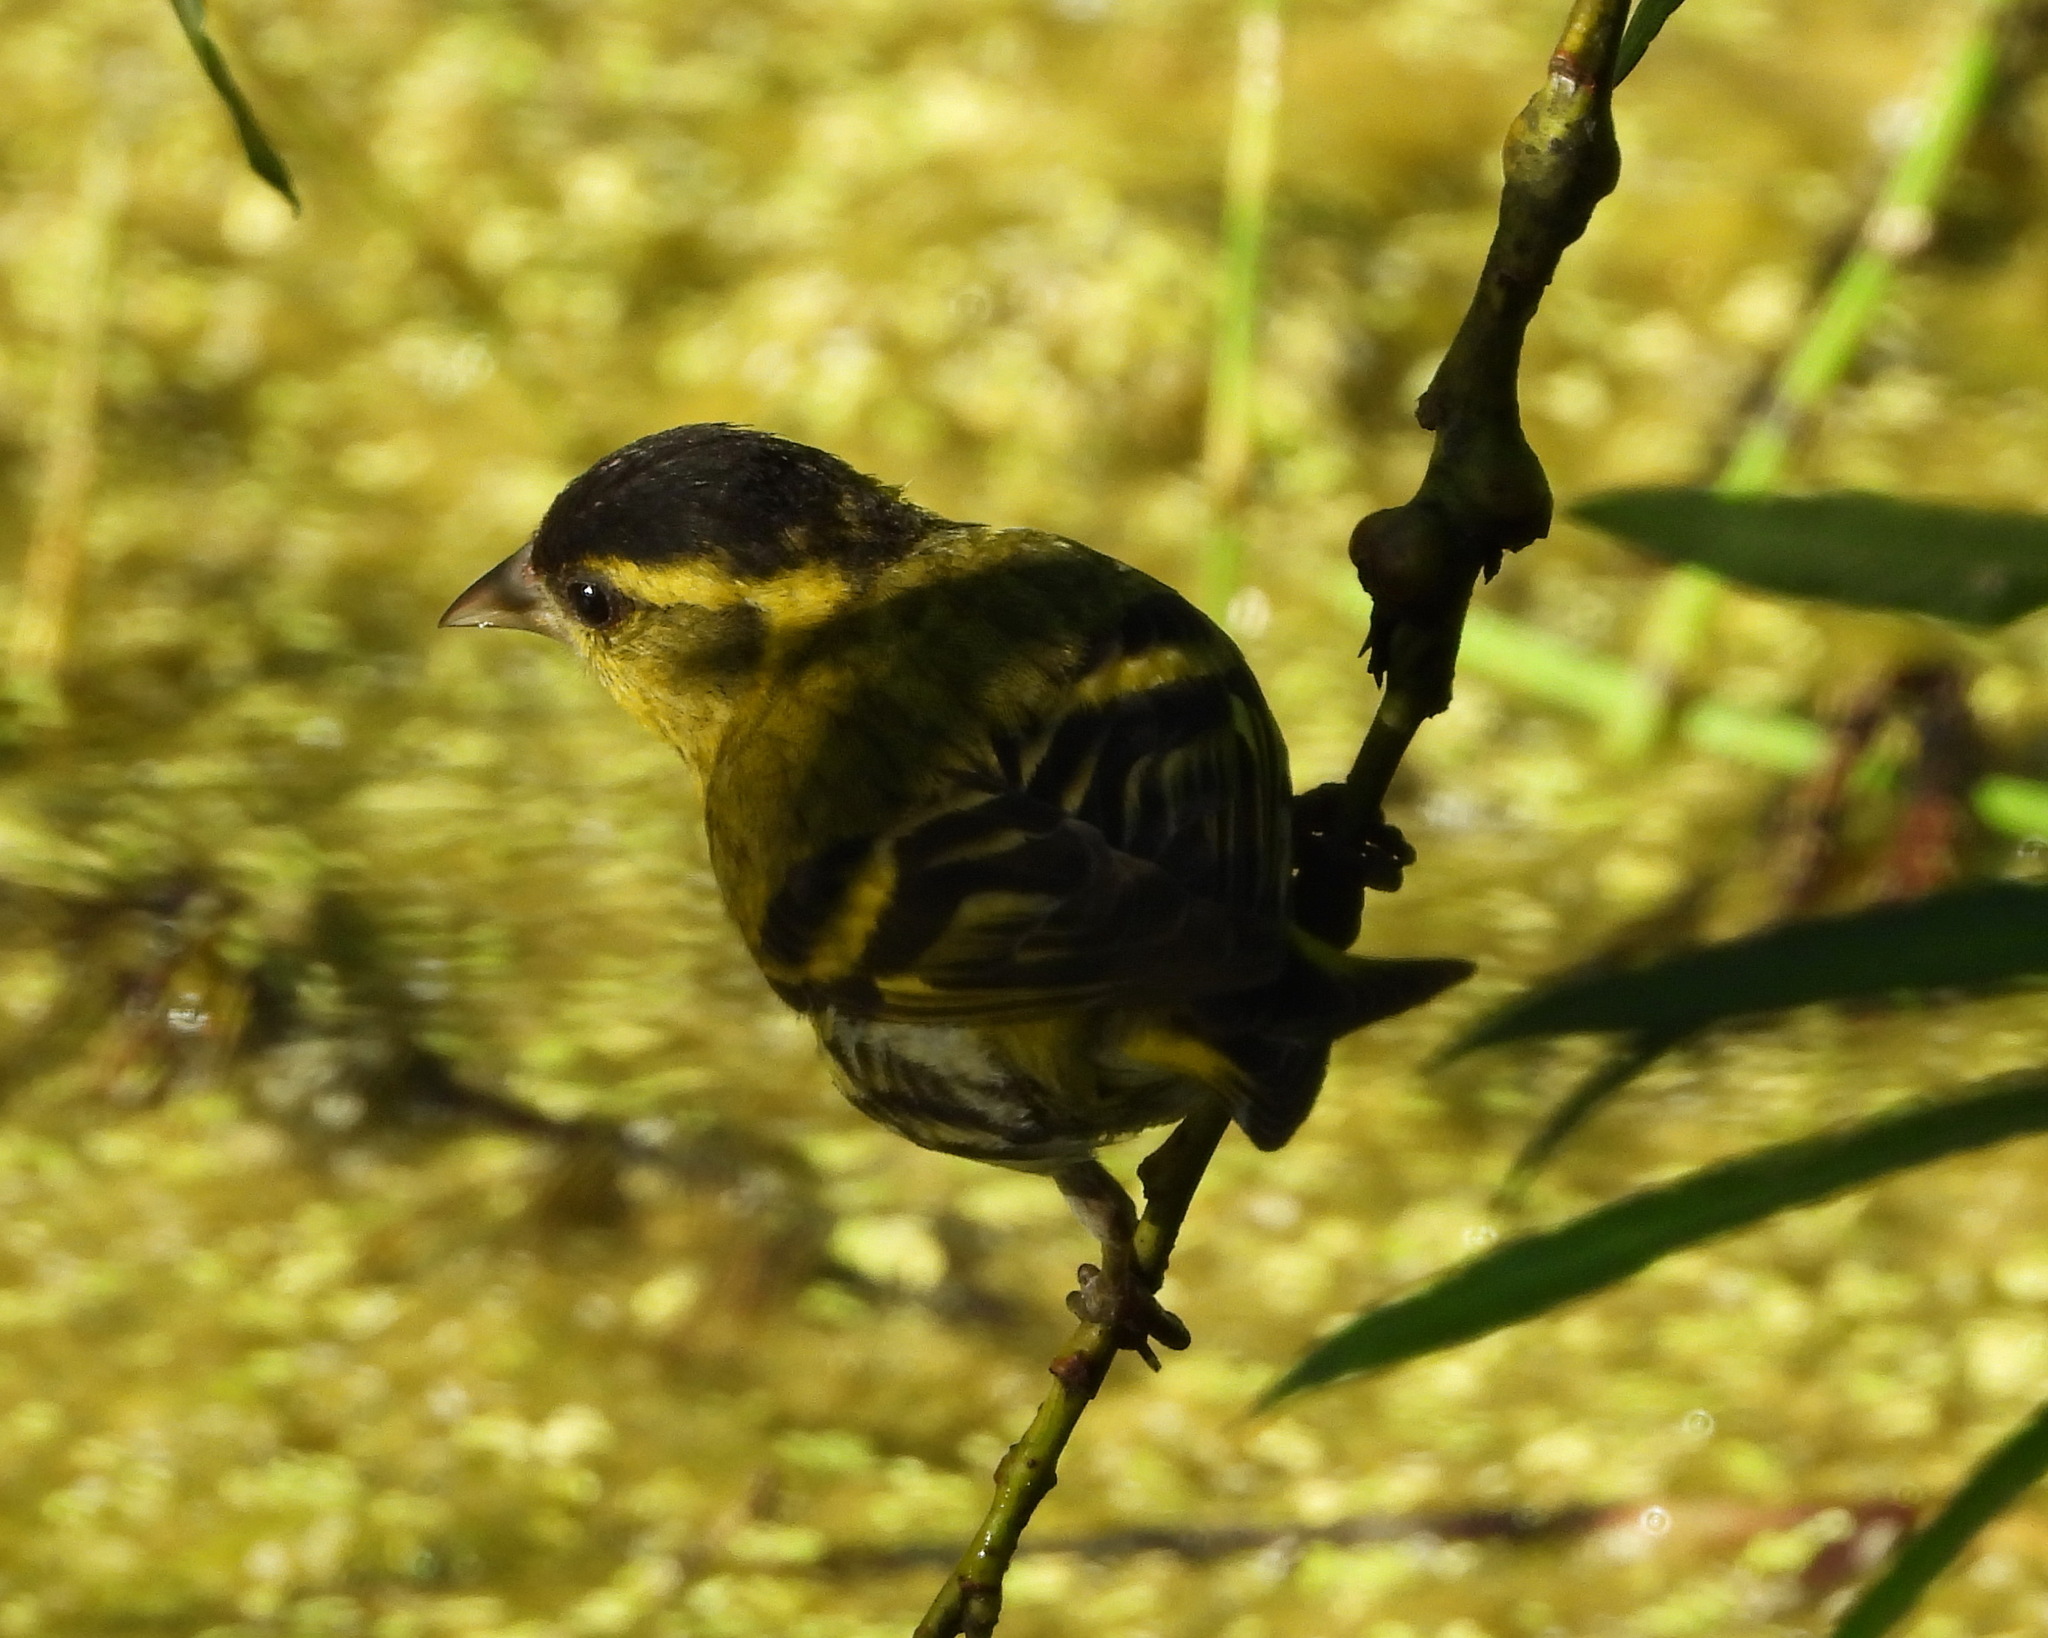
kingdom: Animalia
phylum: Chordata
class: Aves
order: Passeriformes
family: Fringillidae
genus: Spinus
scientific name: Spinus spinus
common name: Eurasian siskin
